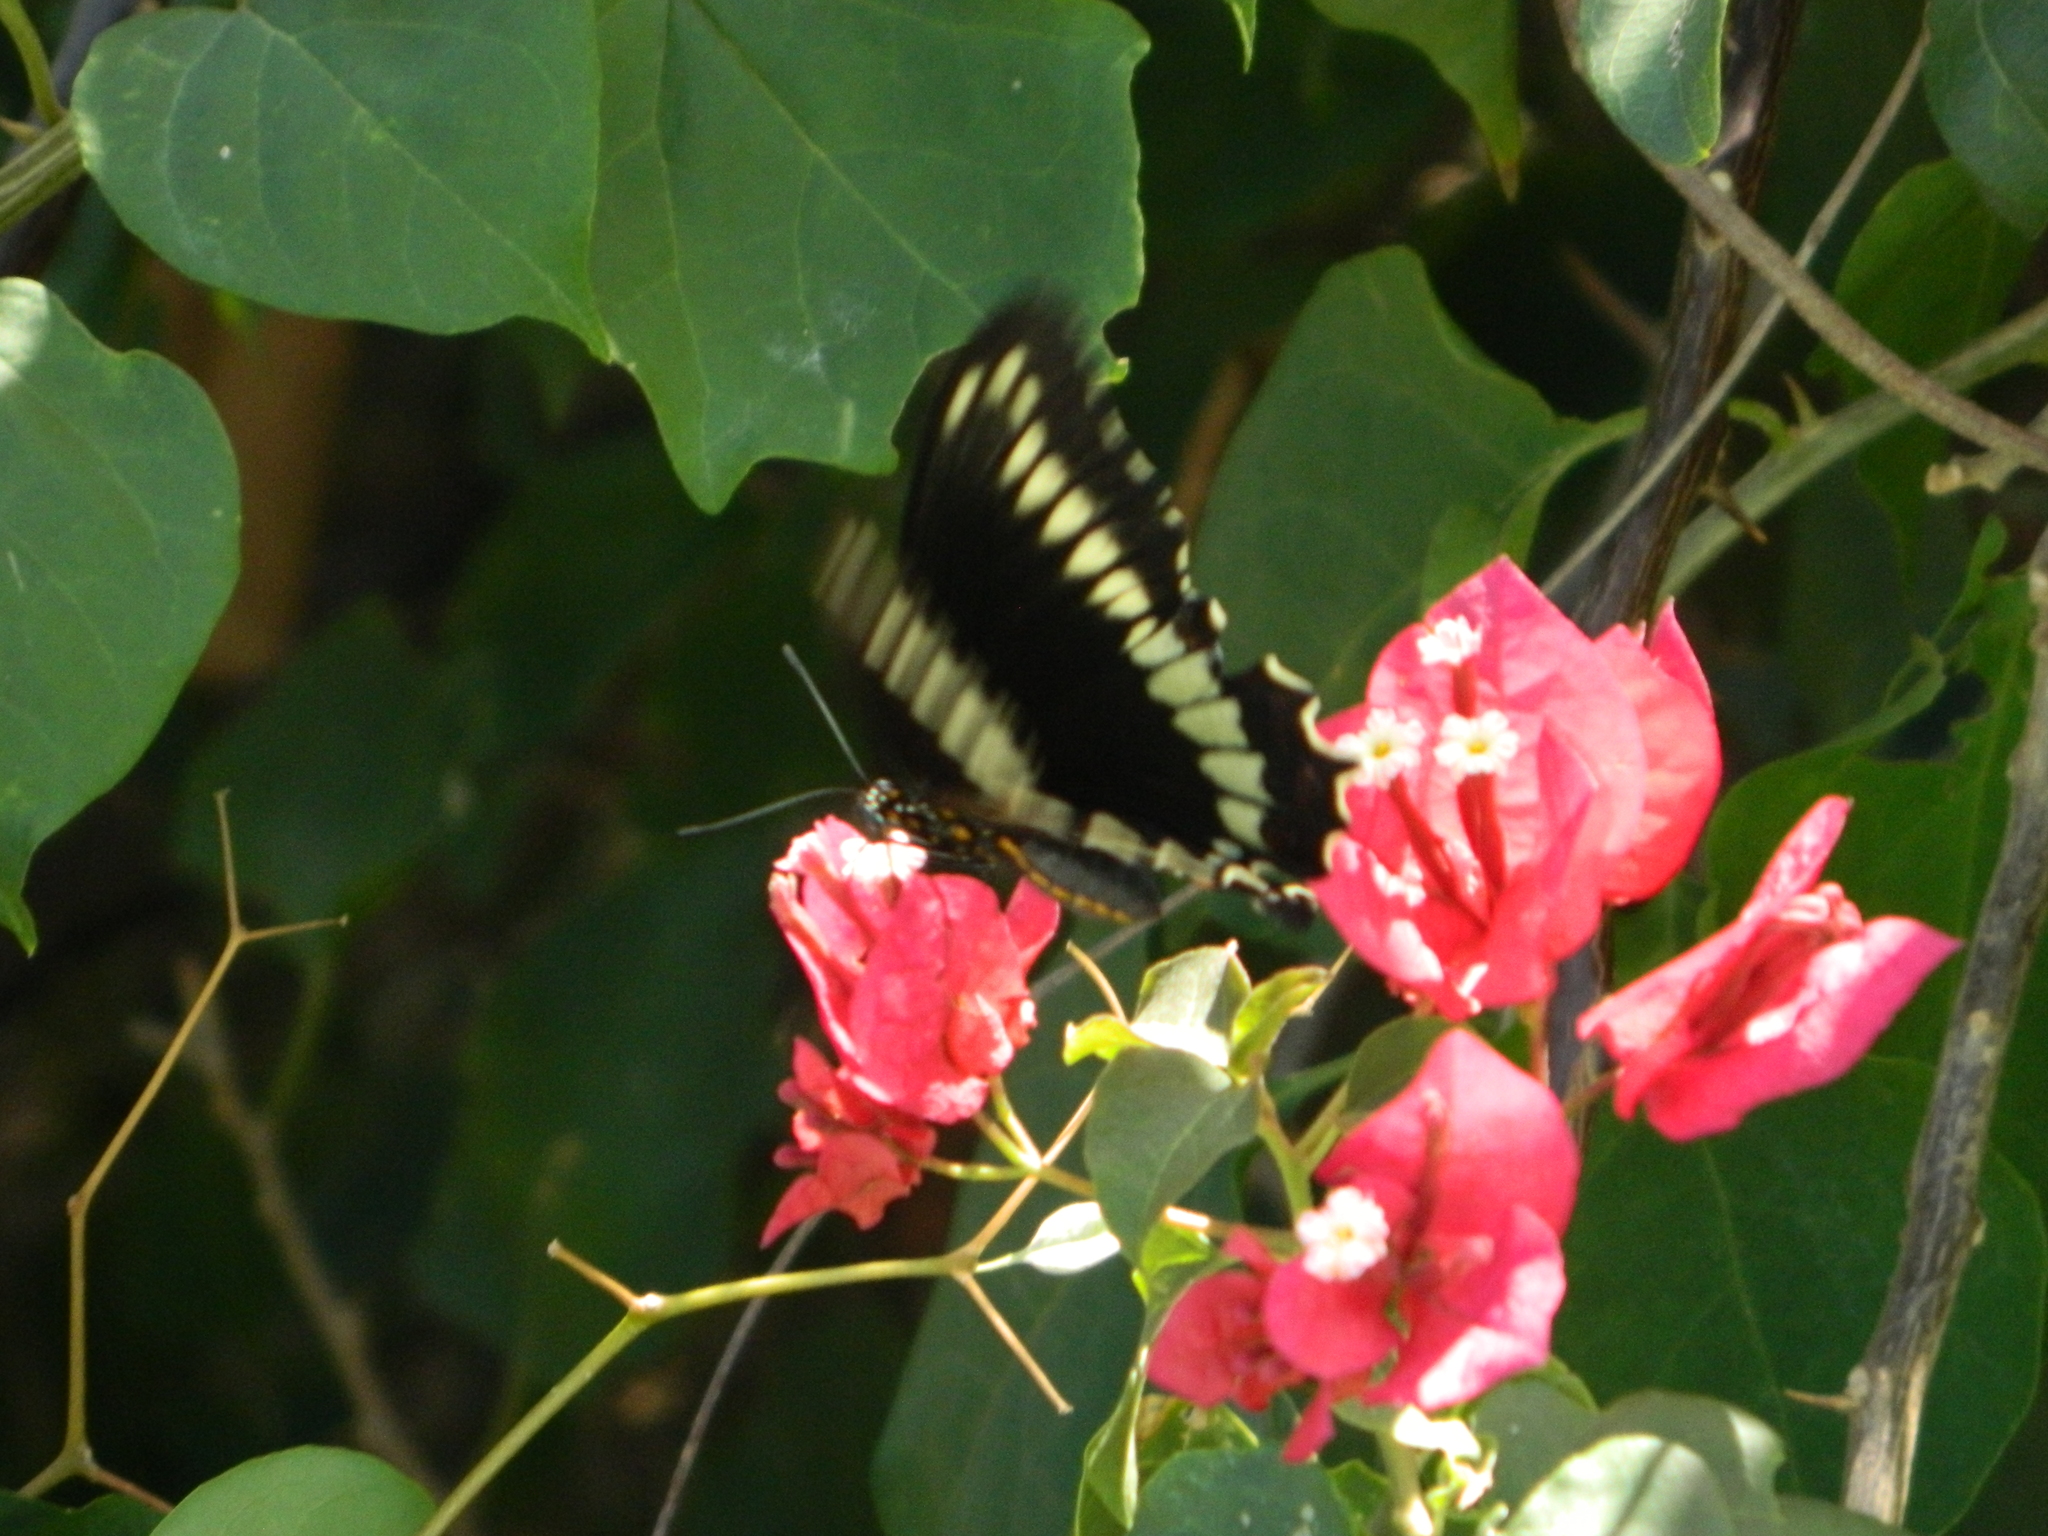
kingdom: Animalia
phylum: Arthropoda
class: Insecta
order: Lepidoptera
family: Papilionidae
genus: Battus
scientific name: Battus polydamas
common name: Polydamas swallowtail
